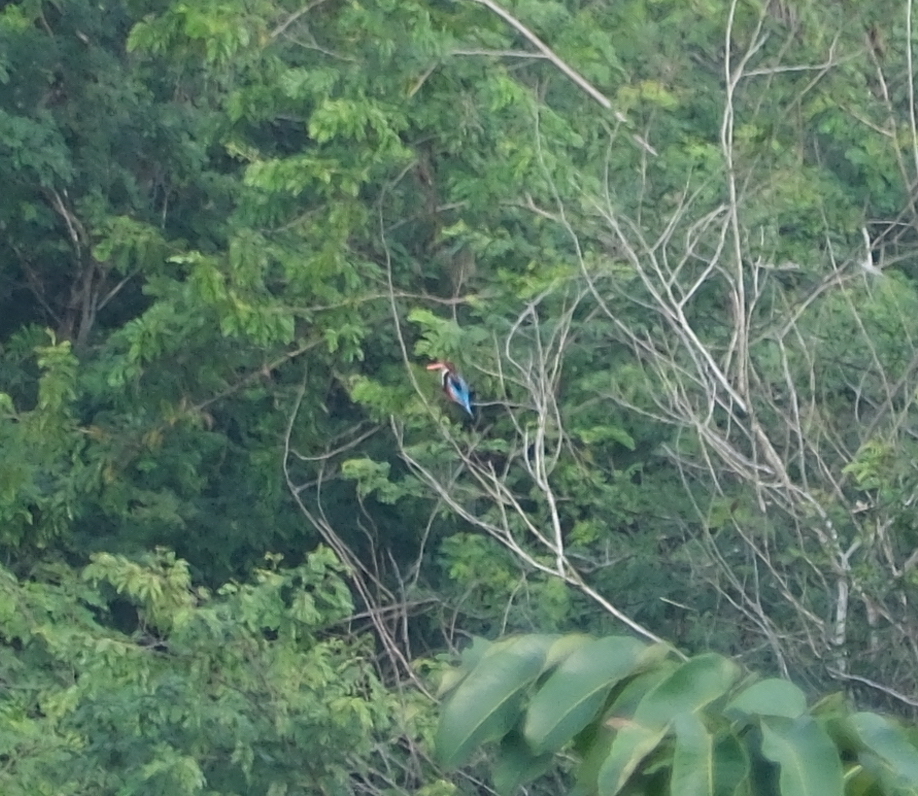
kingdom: Animalia
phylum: Chordata
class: Aves
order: Coraciiformes
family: Alcedinidae
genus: Halcyon
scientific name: Halcyon smyrnensis
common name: White-throated kingfisher
